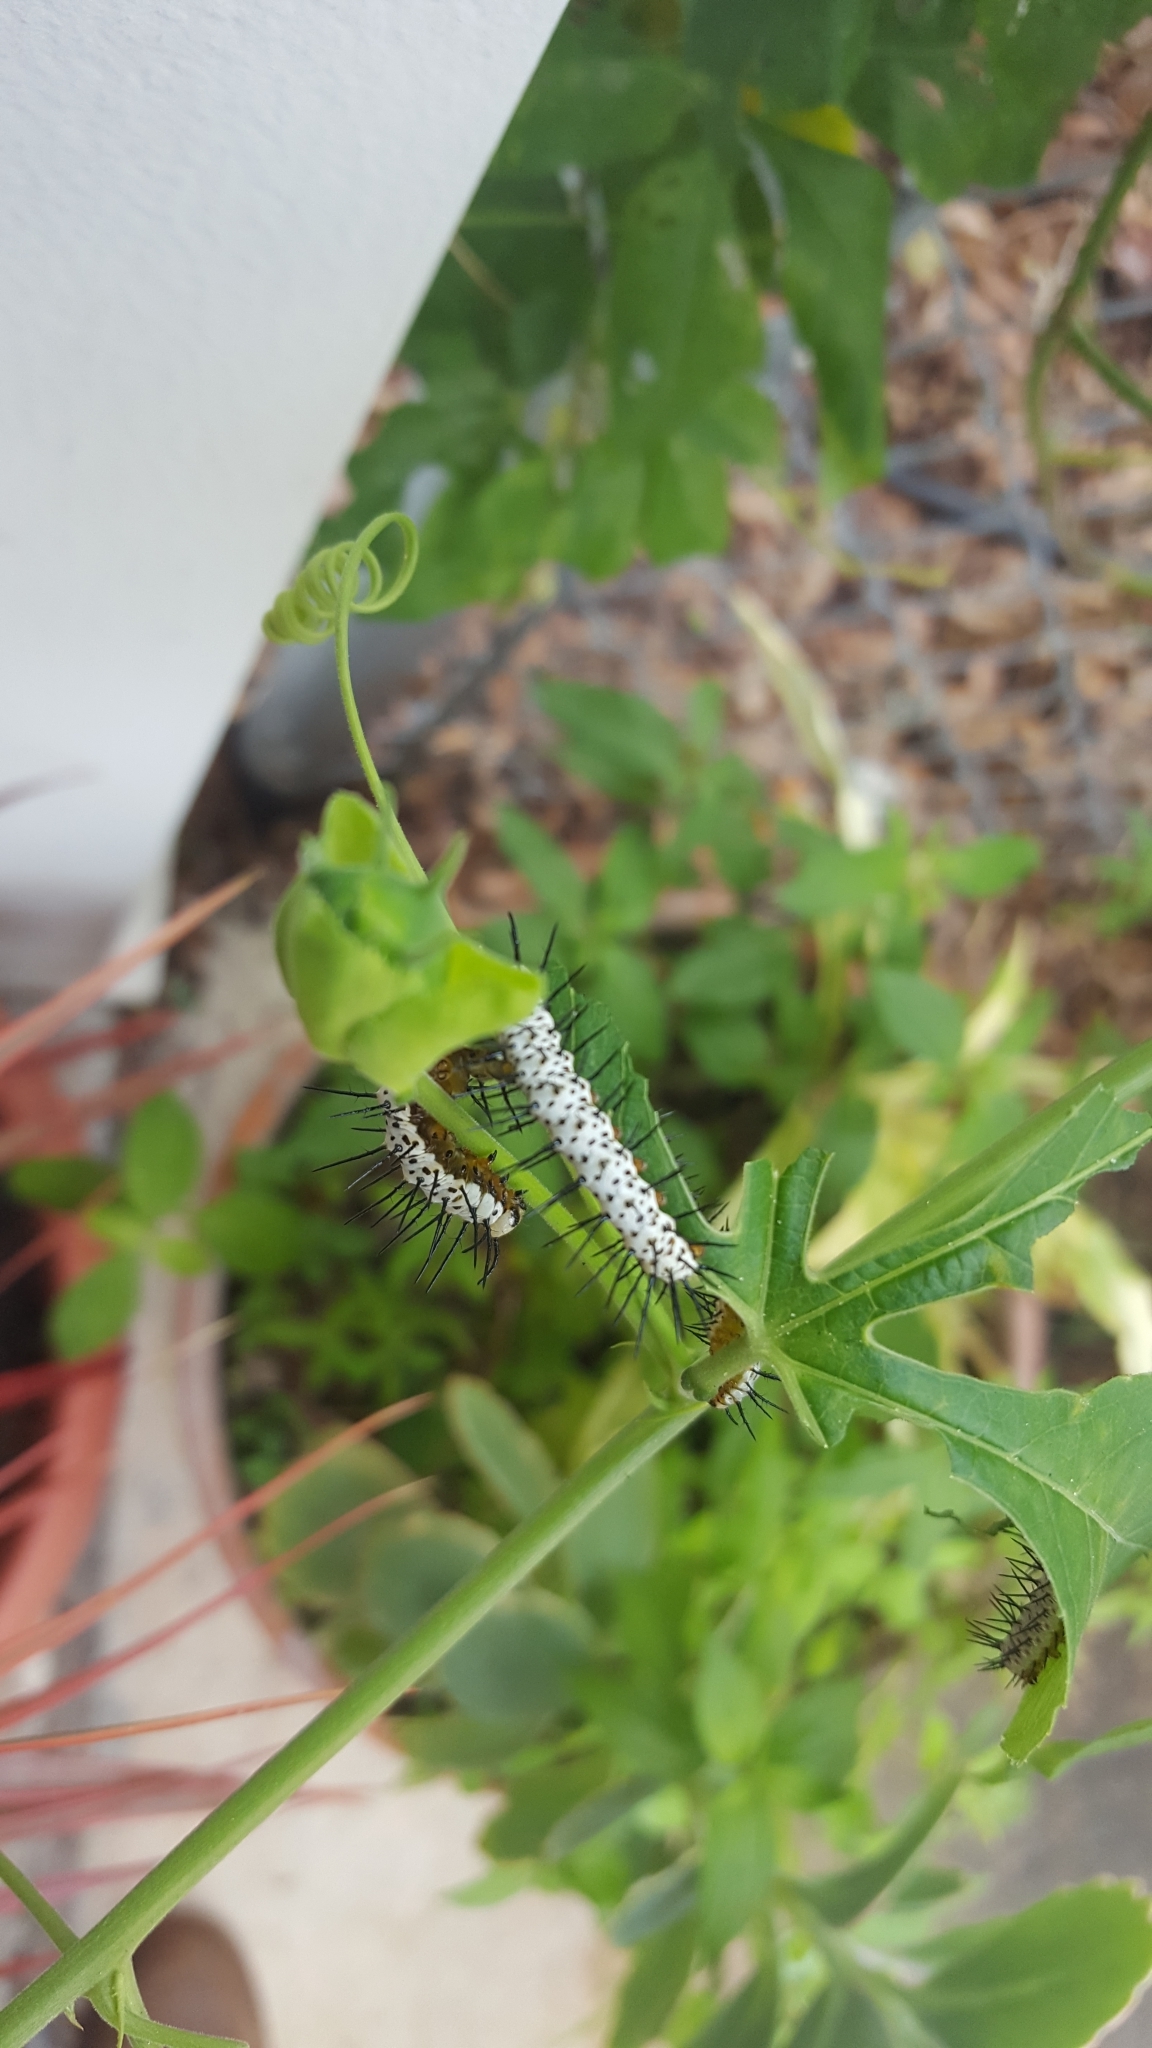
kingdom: Animalia
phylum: Arthropoda
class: Insecta
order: Lepidoptera
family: Nymphalidae
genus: Heliconius
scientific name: Heliconius charithonia
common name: Zebra long wing
